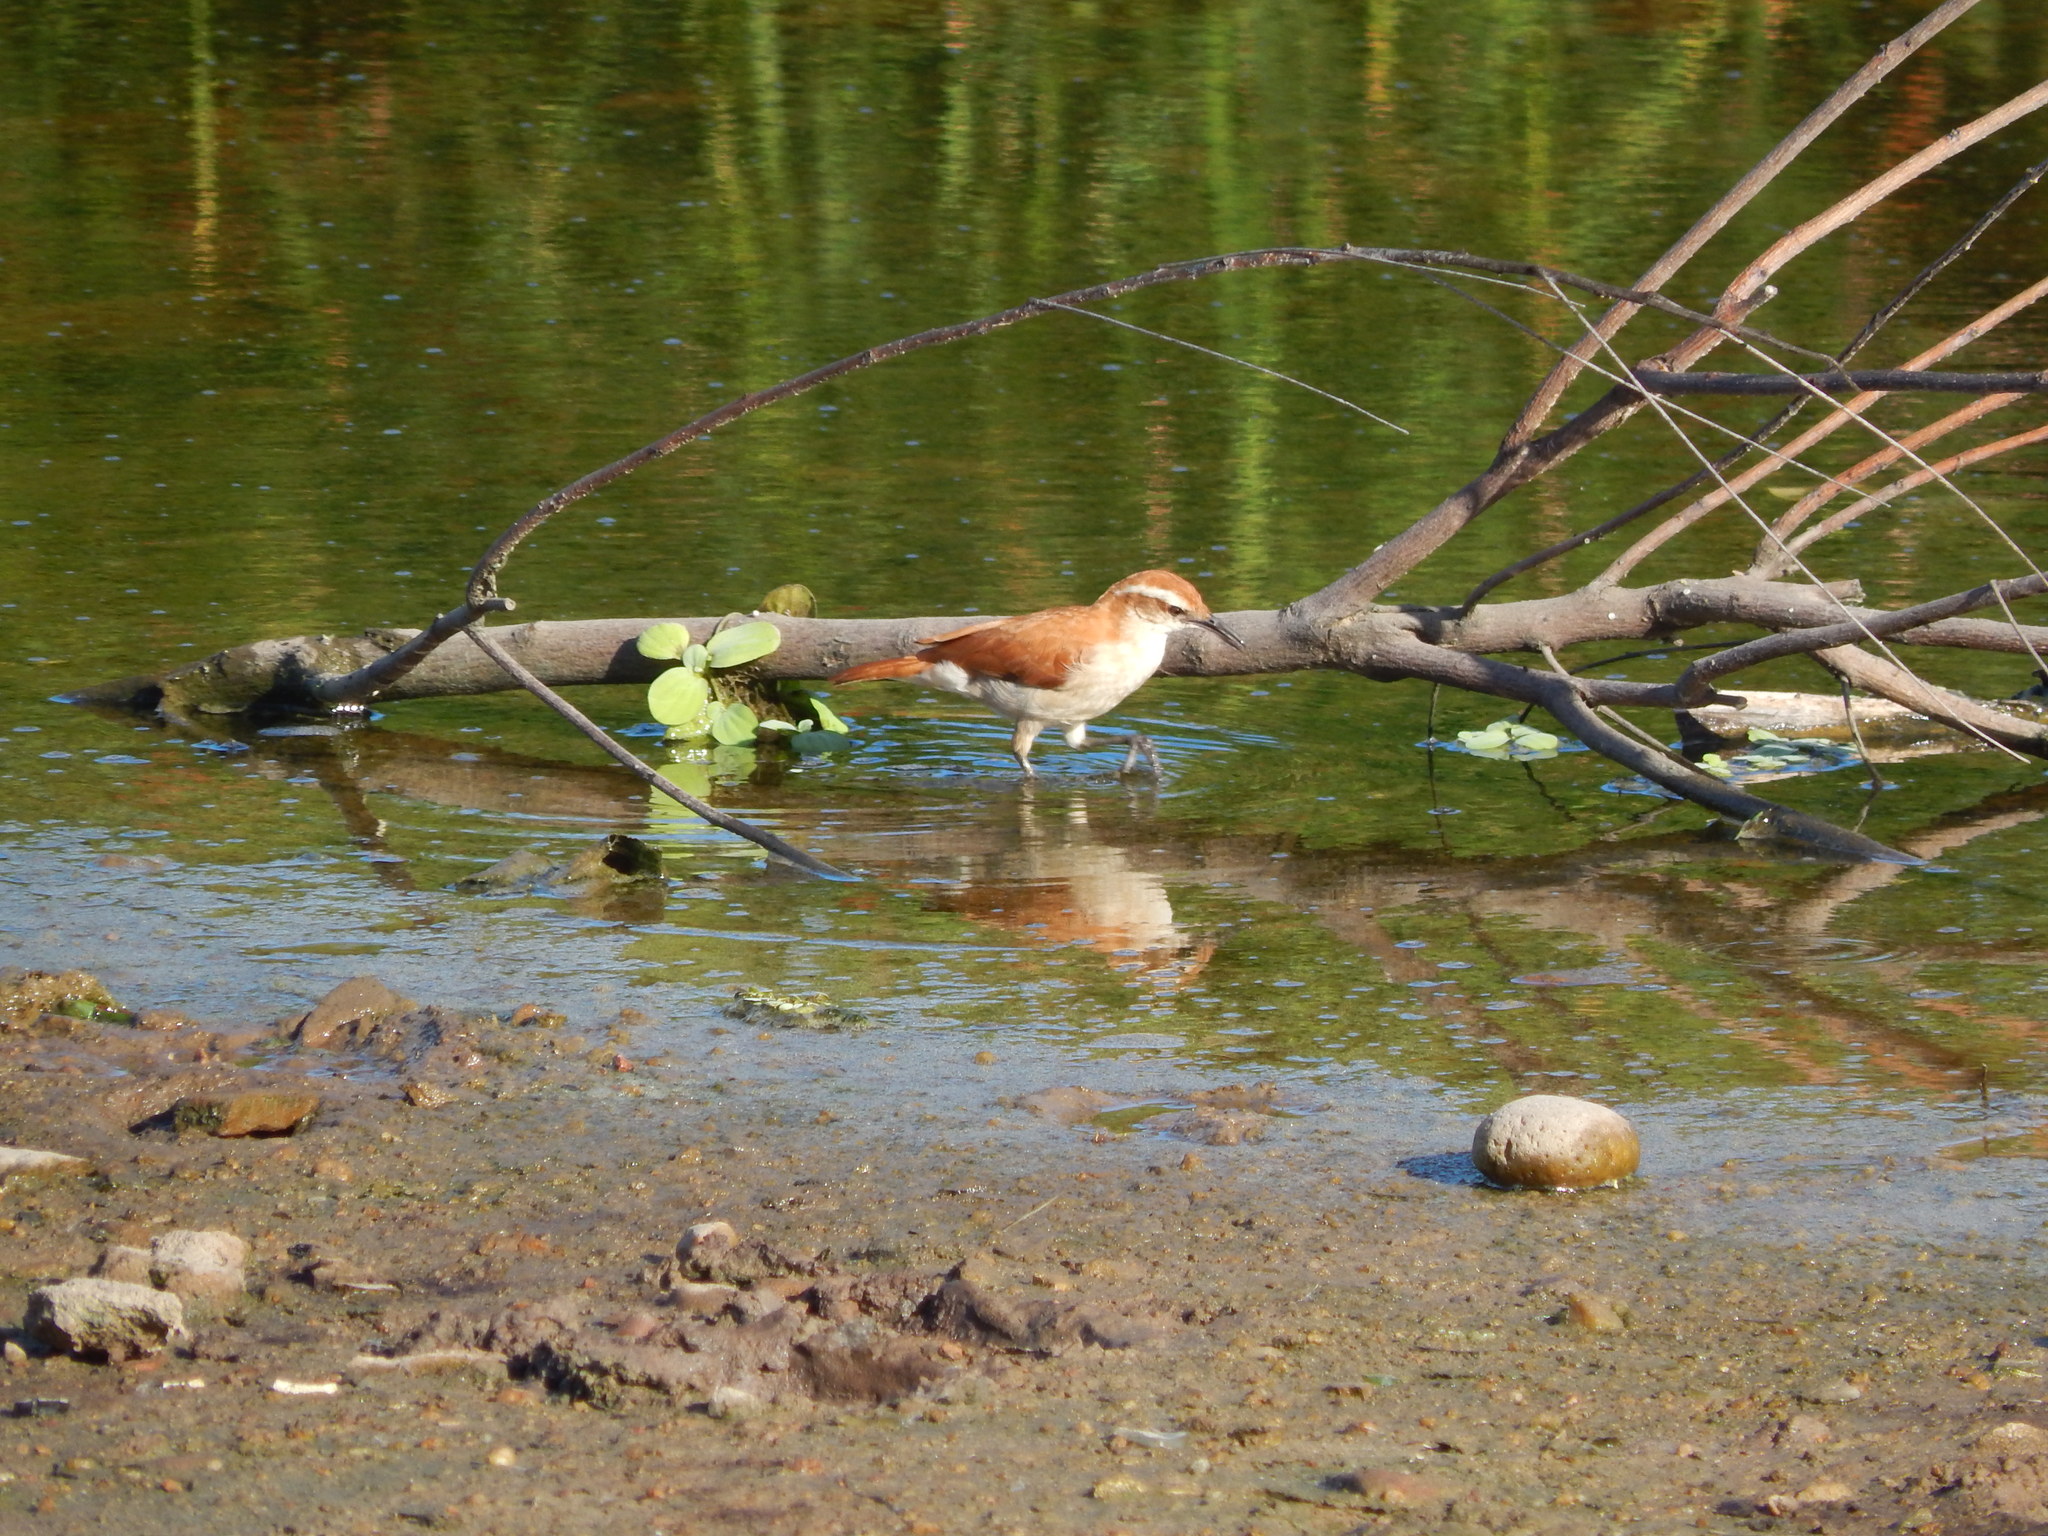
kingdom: Animalia
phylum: Chordata
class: Aves
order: Passeriformes
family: Furnariidae
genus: Furnarius
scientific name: Furnarius figulus
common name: Band-tailed hornero
